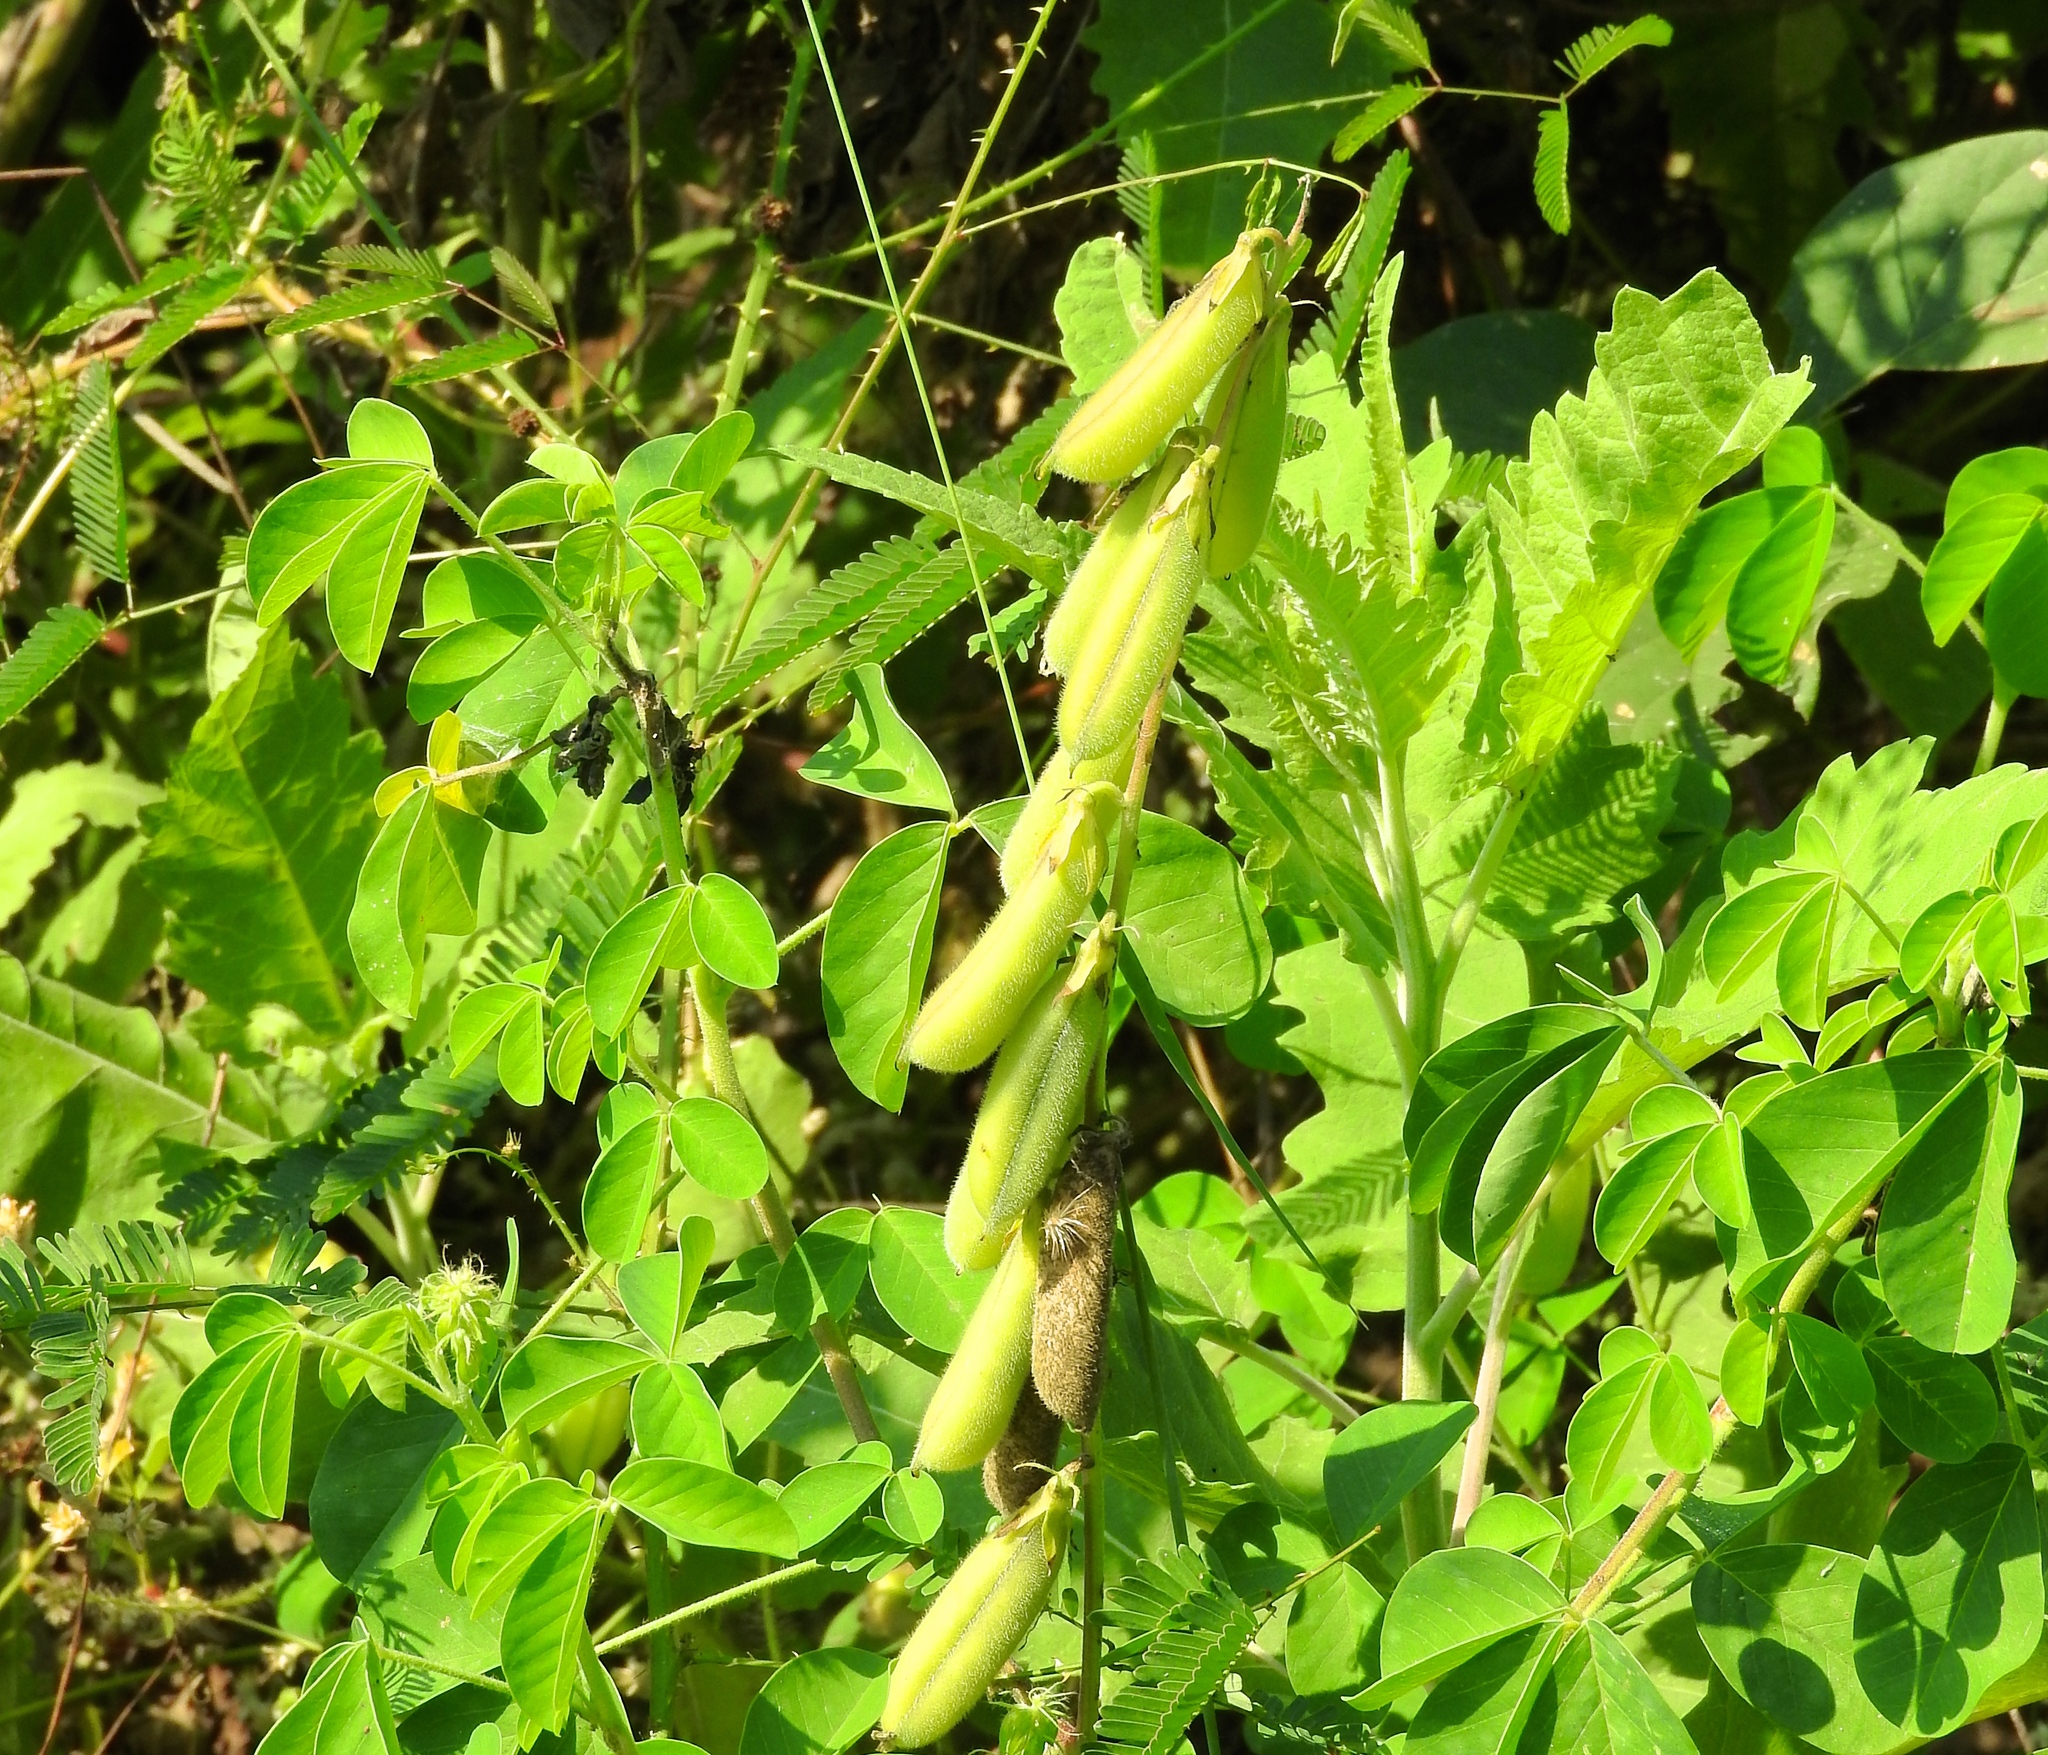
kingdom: Plantae
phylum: Tracheophyta
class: Magnoliopsida
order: Fabales
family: Fabaceae
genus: Crotalaria
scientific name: Crotalaria
